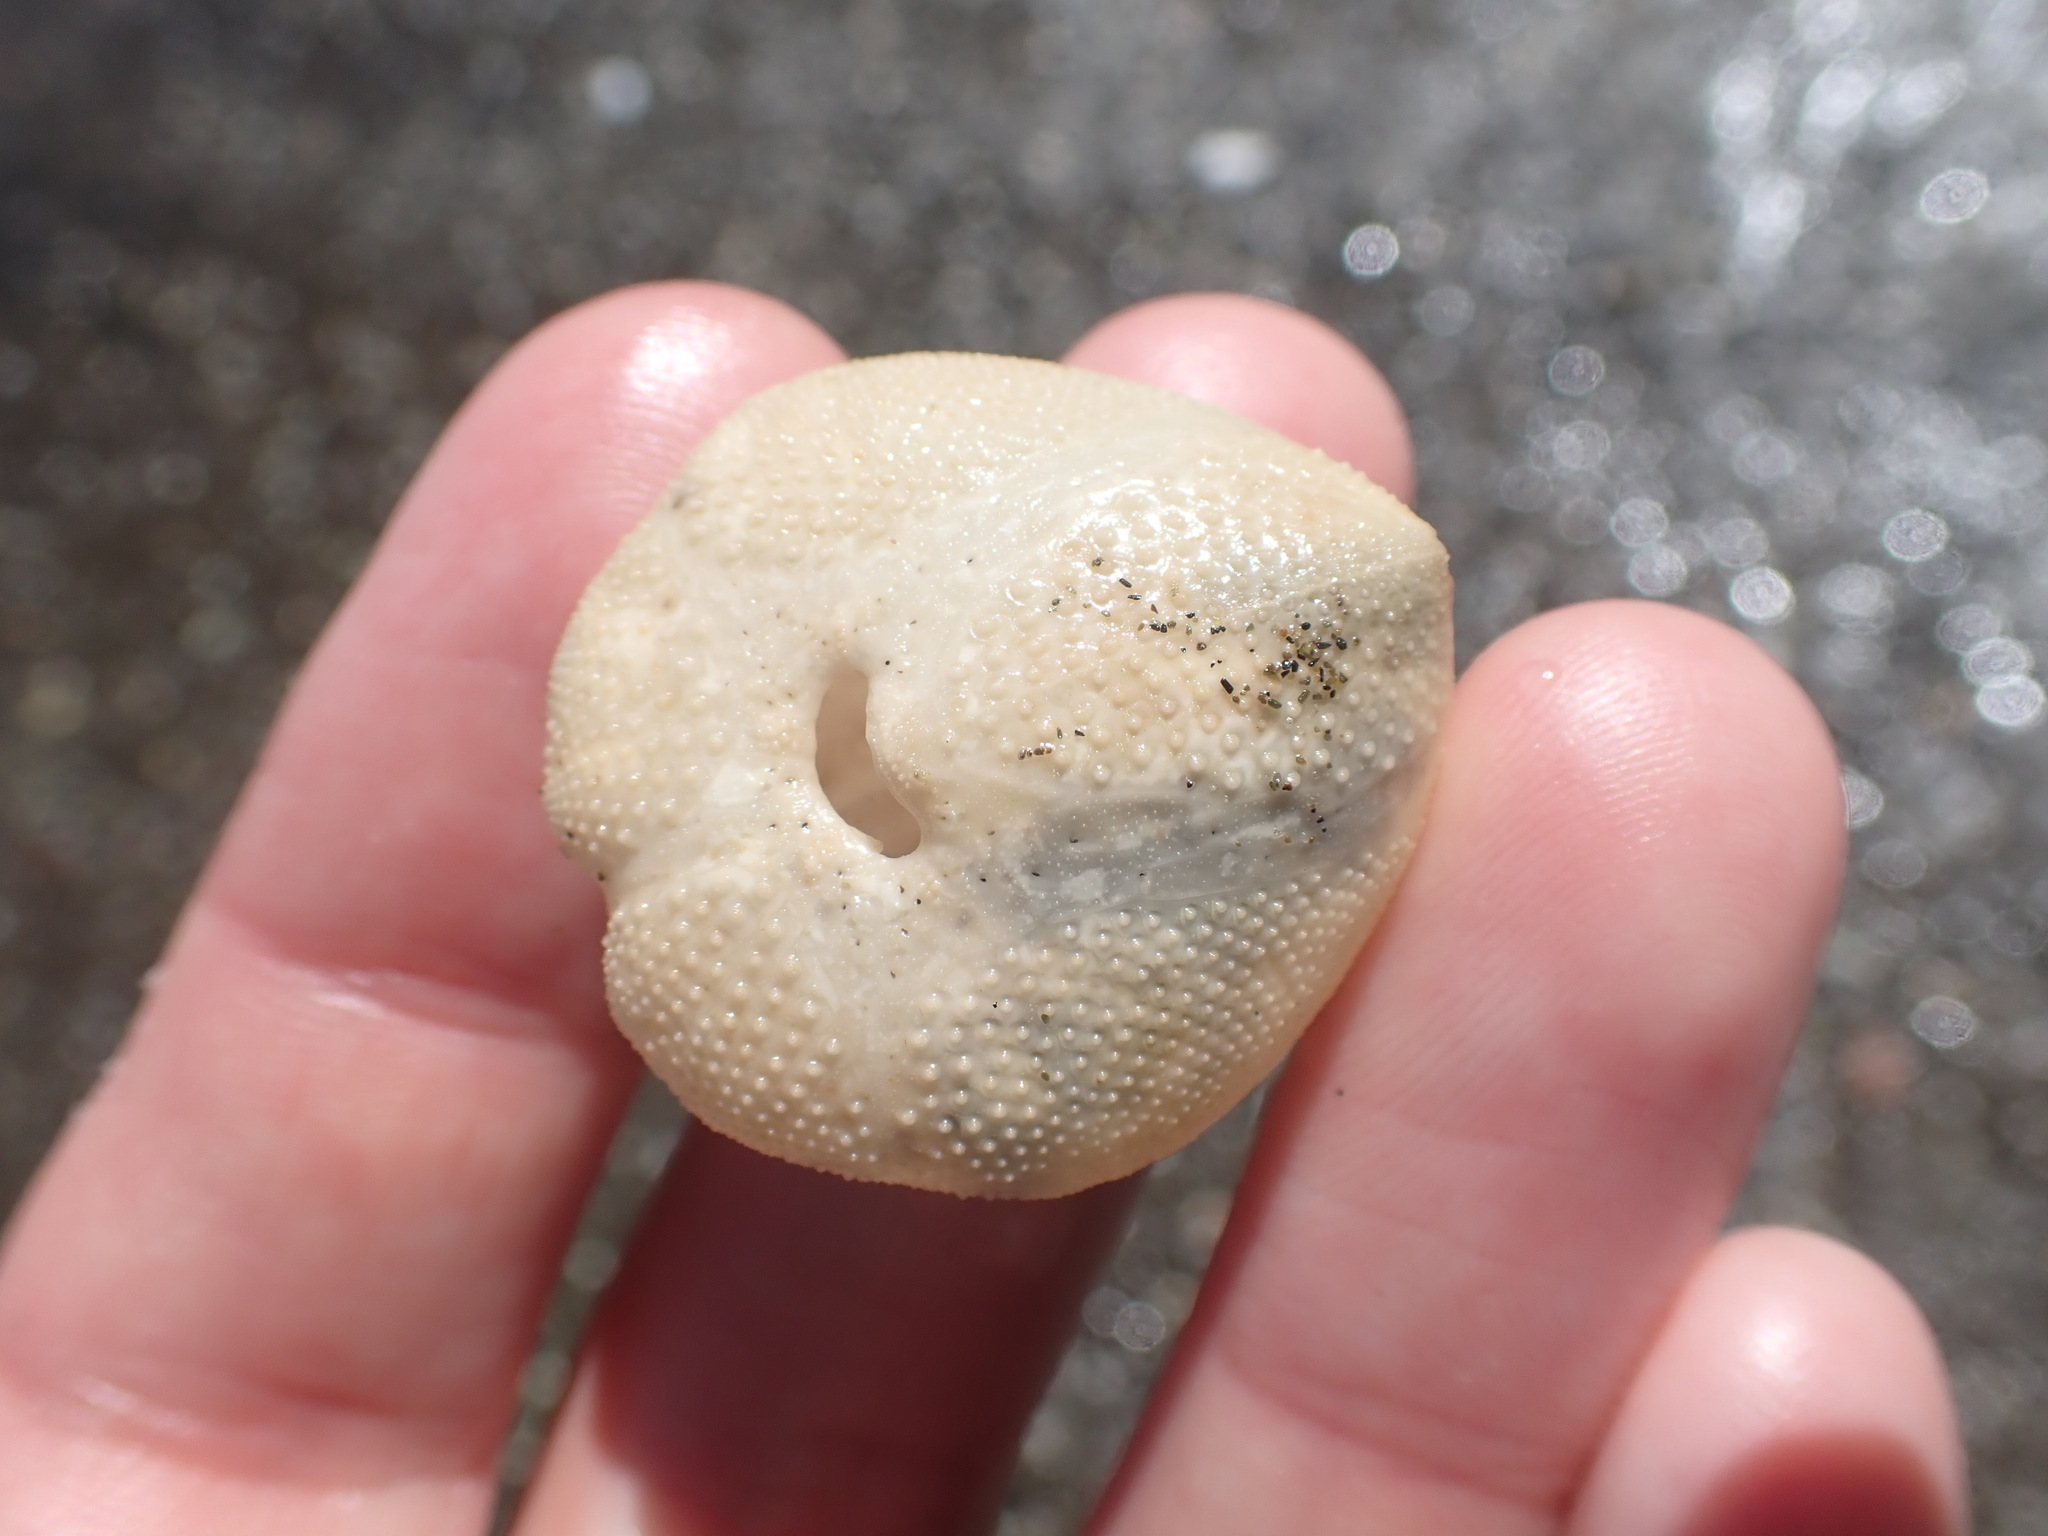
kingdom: Animalia
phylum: Echinodermata
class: Echinoidea
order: Spatangoida
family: Loveniidae
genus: Echinocardium
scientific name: Echinocardium cordatum
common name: Heart-urchin
